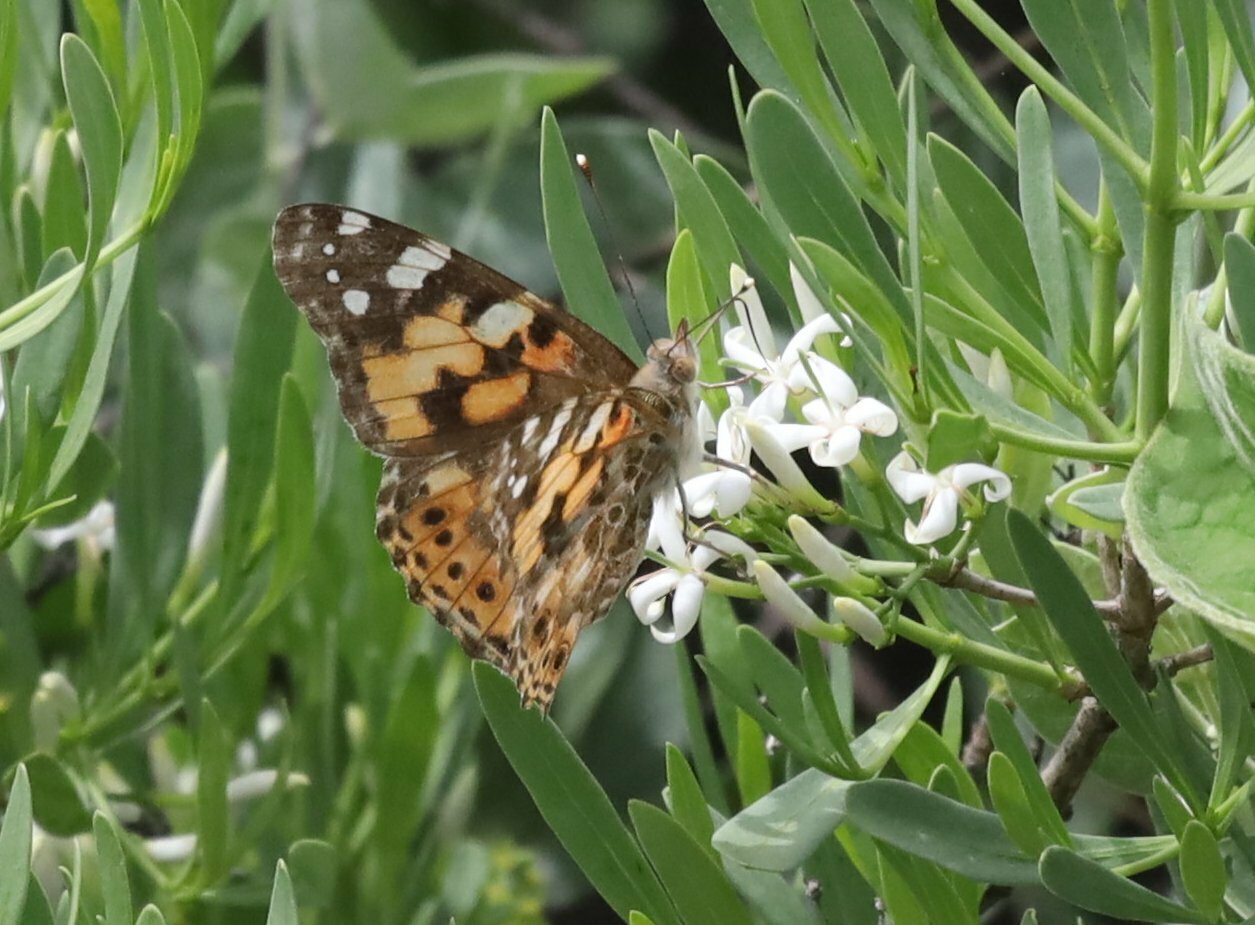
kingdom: Animalia
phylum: Arthropoda
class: Insecta
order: Lepidoptera
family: Nymphalidae
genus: Vanessa
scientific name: Vanessa cardui
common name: Painted lady
